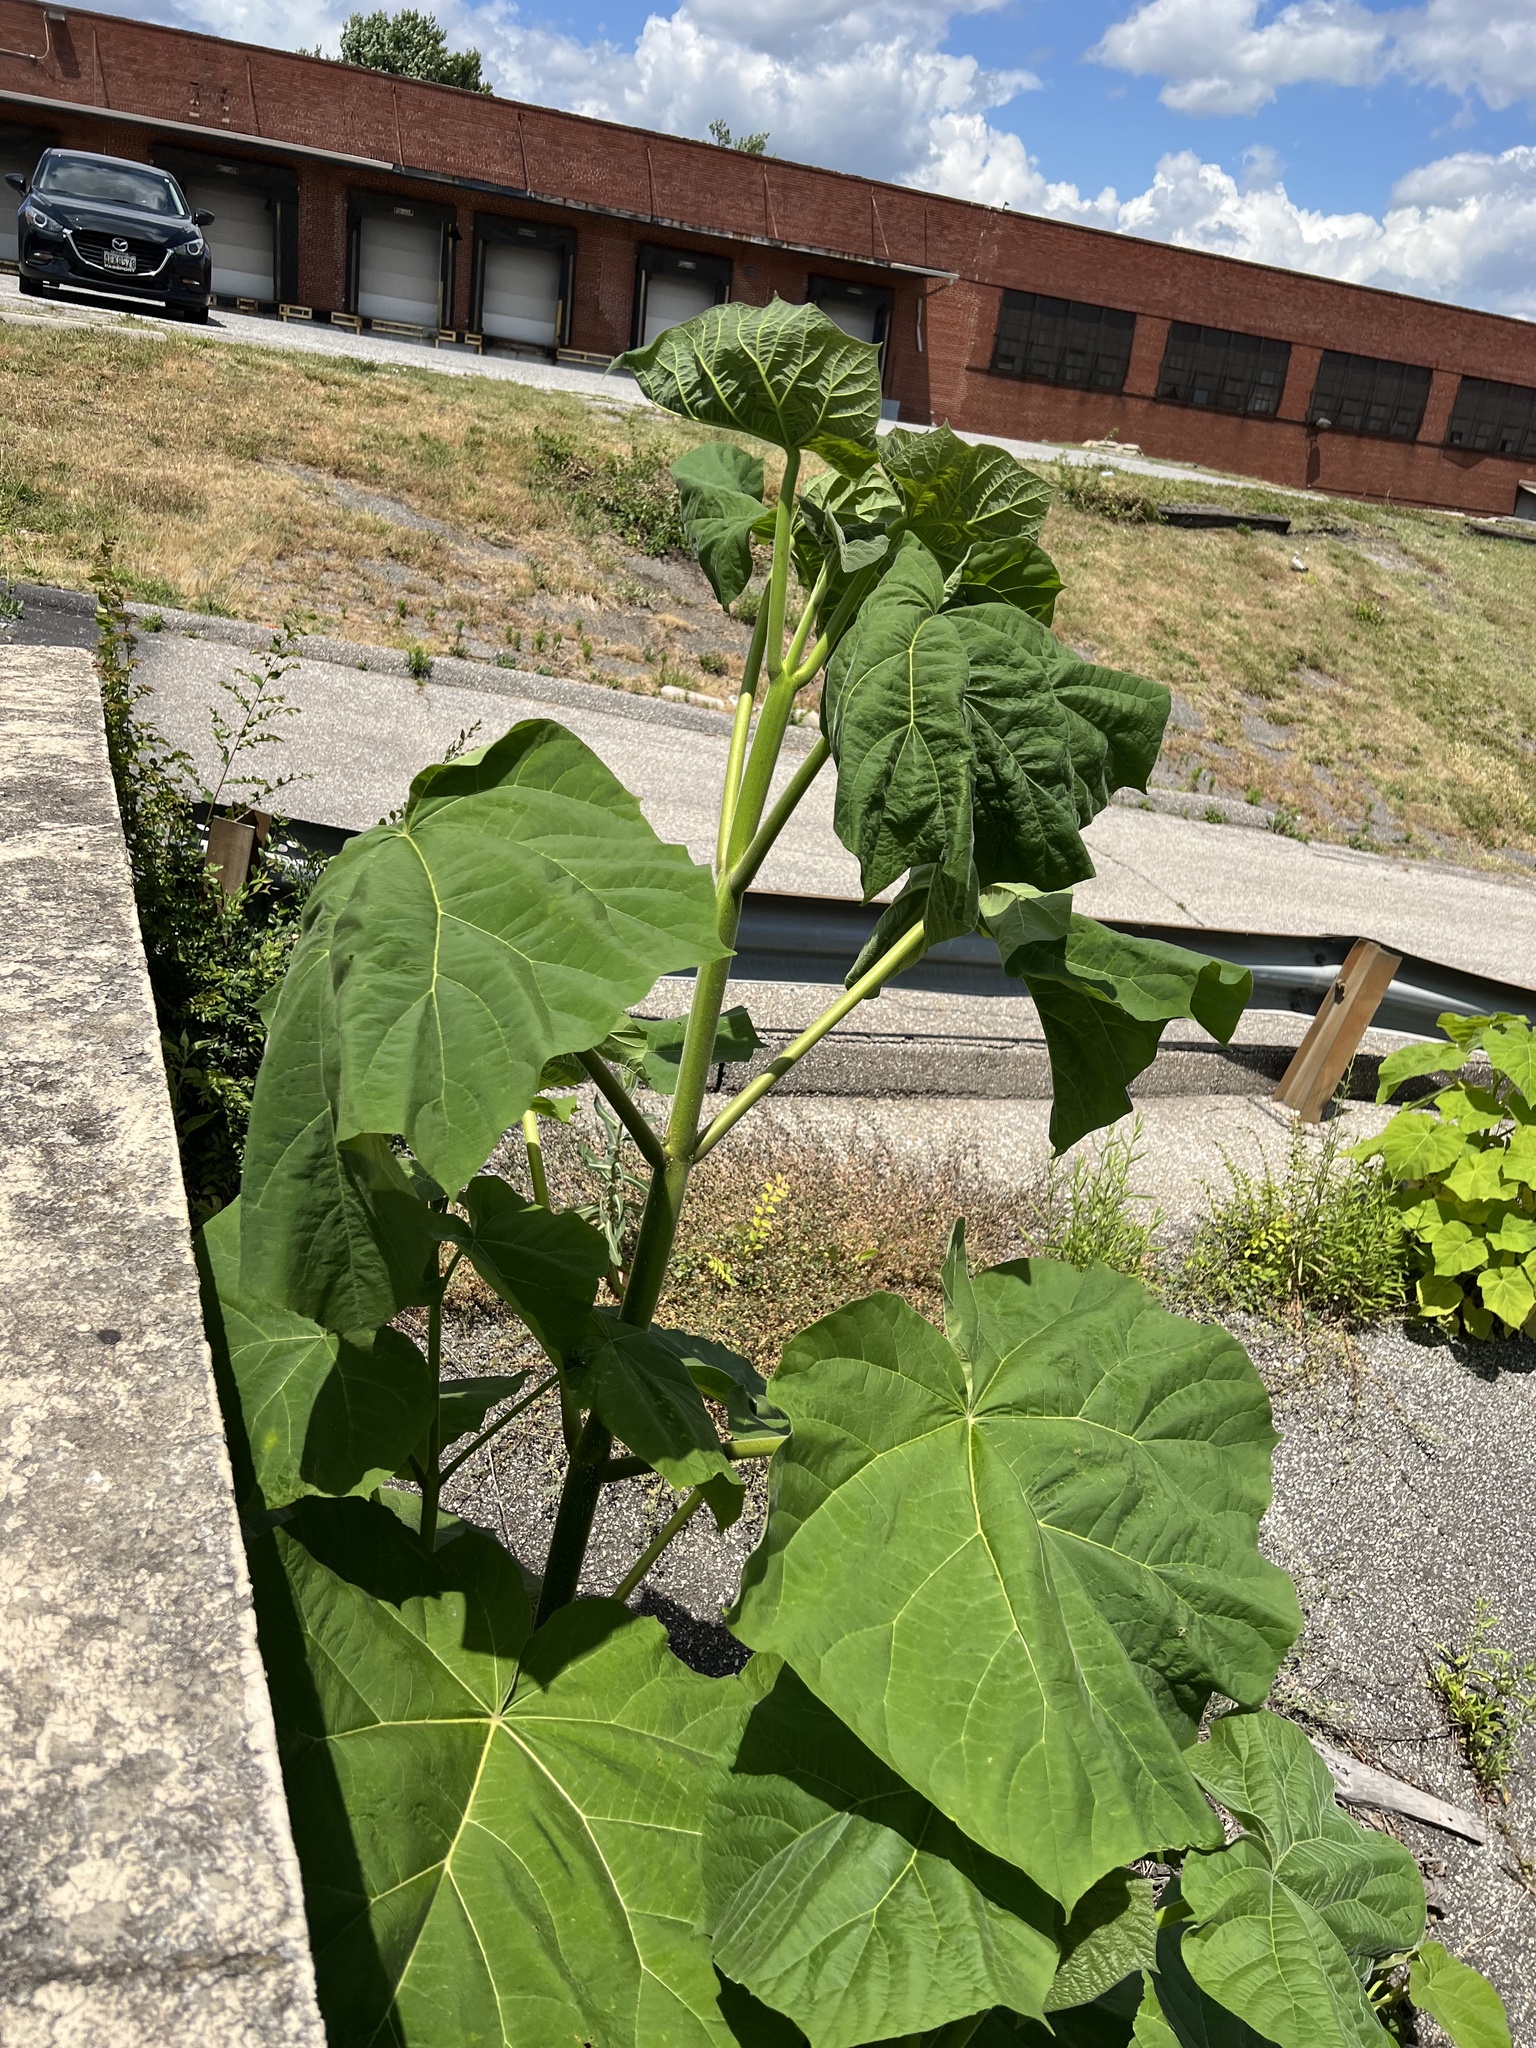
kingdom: Plantae
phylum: Tracheophyta
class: Magnoliopsida
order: Lamiales
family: Paulowniaceae
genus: Paulownia
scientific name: Paulownia tomentosa
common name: Foxglove-tree
